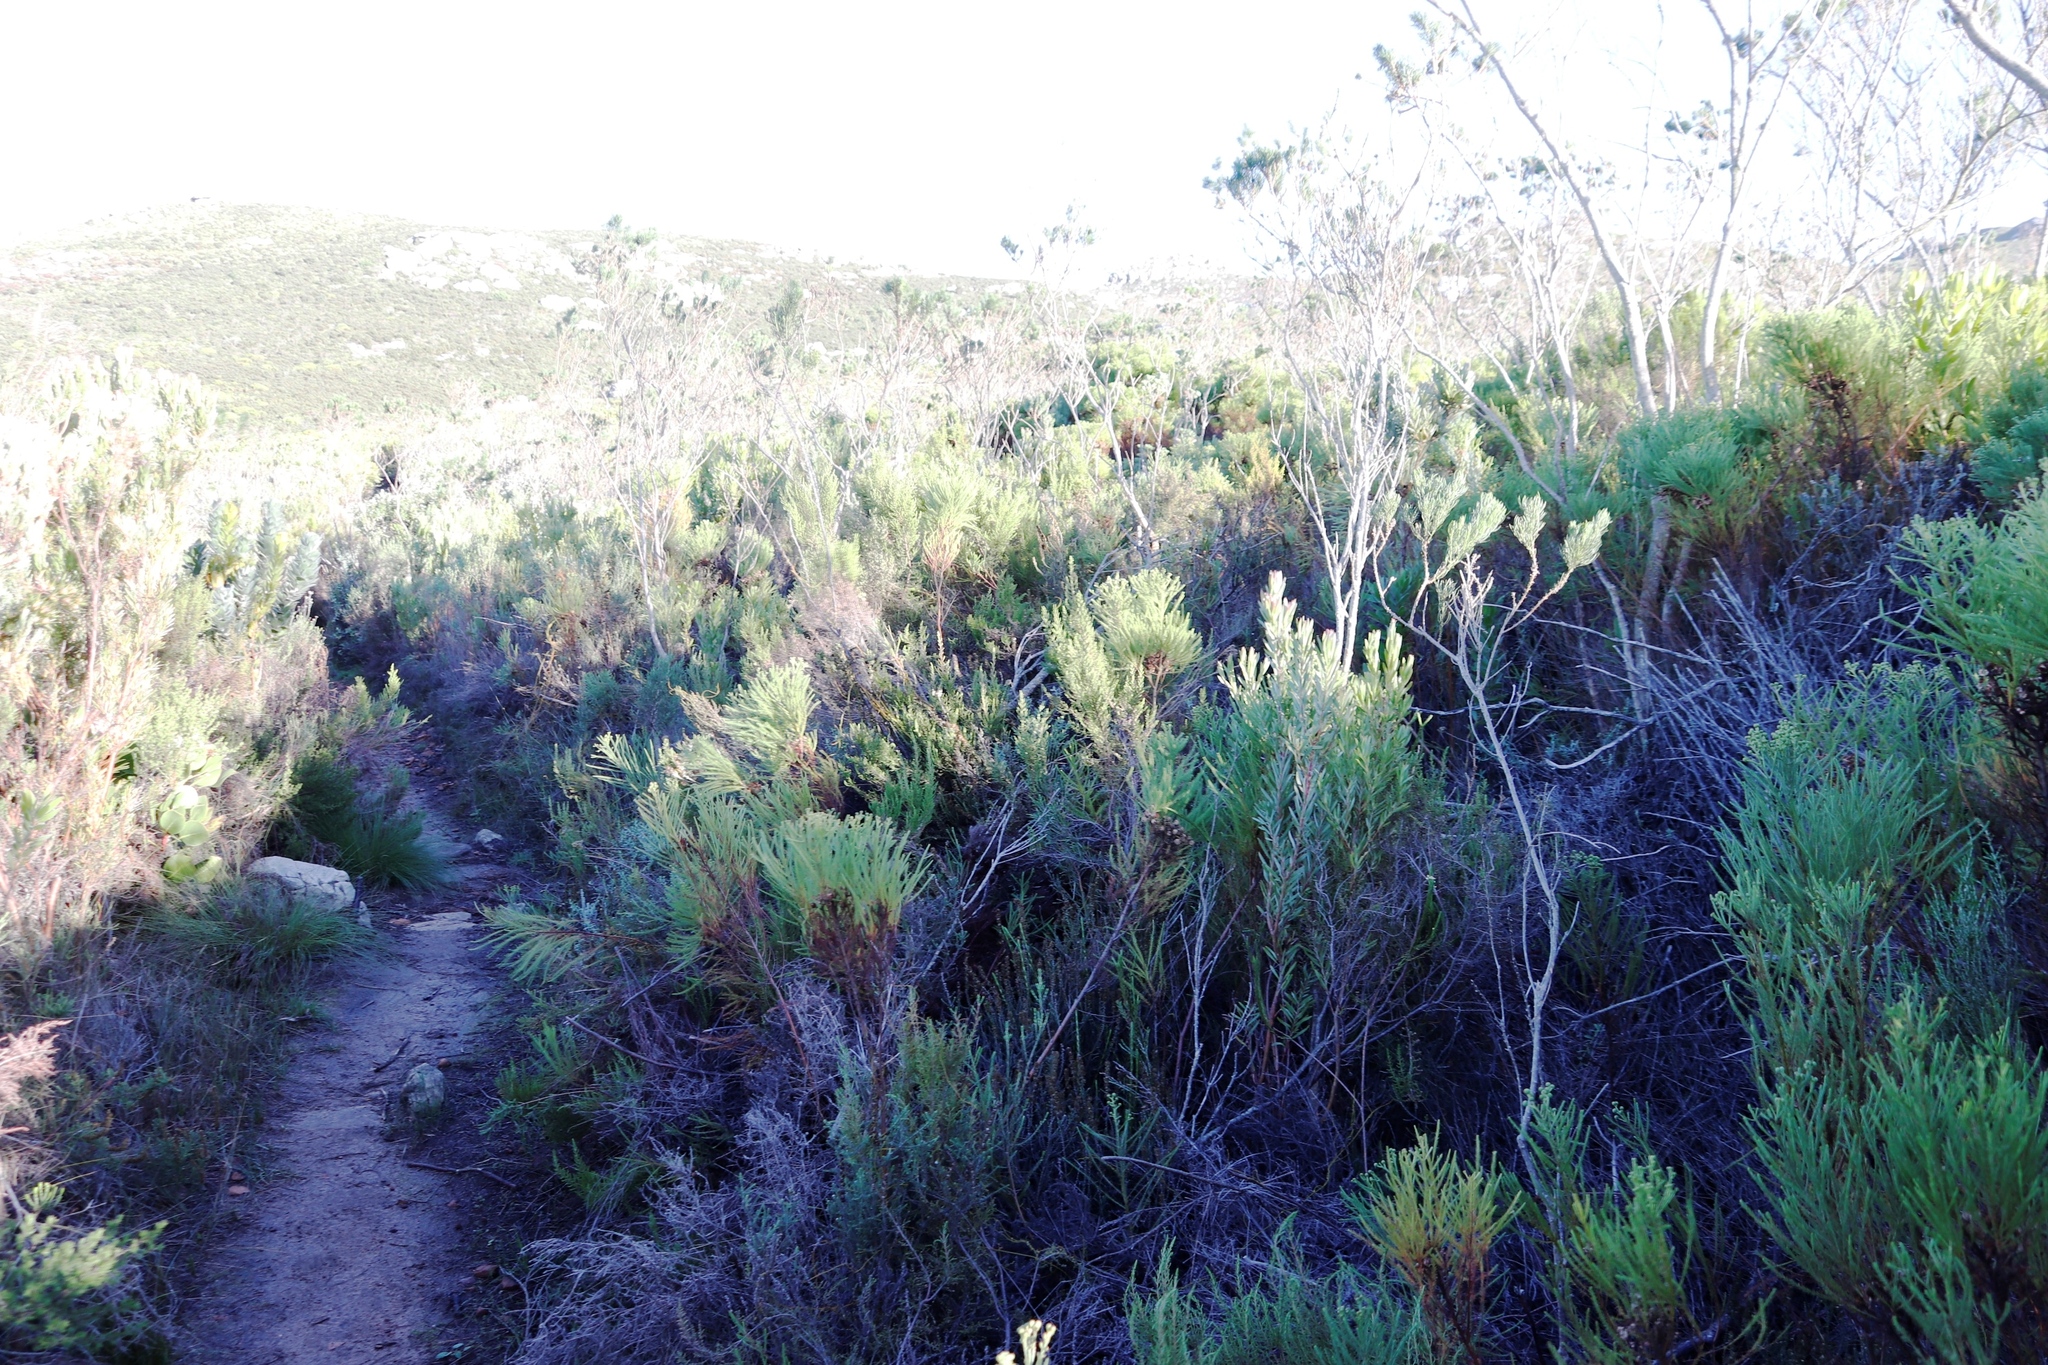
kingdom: Plantae
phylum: Tracheophyta
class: Magnoliopsida
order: Bruniales
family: Bruniaceae
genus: Berzelia
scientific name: Berzelia lanuginosa
